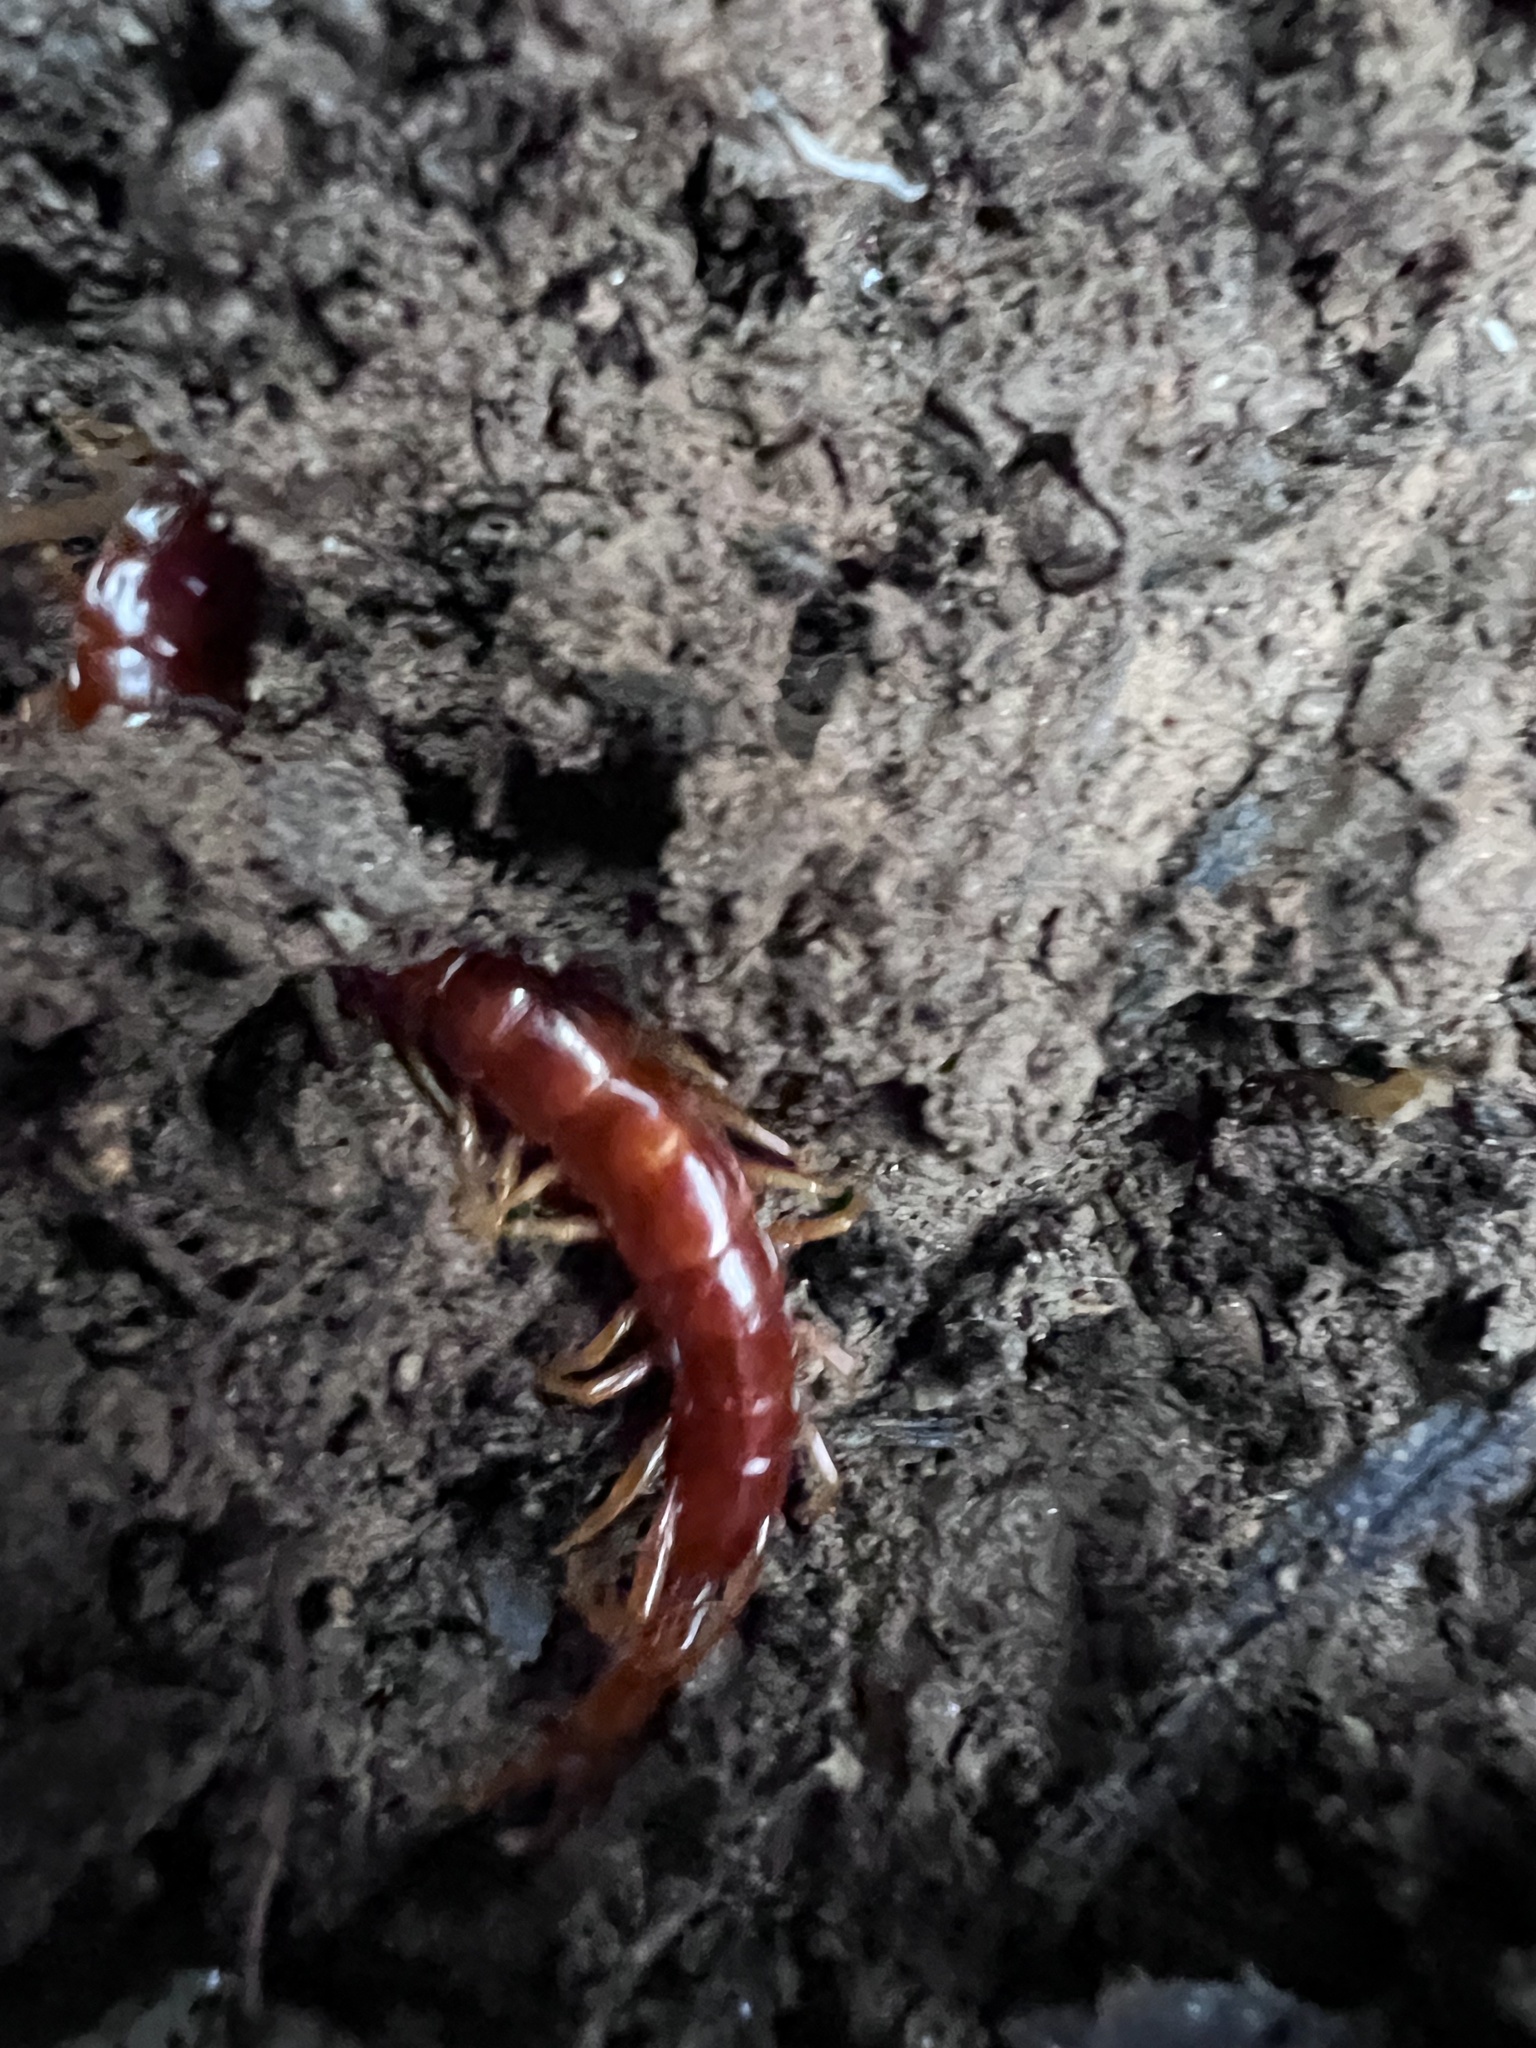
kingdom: Animalia
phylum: Arthropoda
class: Chilopoda
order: Scolopendromorpha
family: Scolopocryptopidae
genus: Scolopocryptops
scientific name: Scolopocryptops sexspinosus
